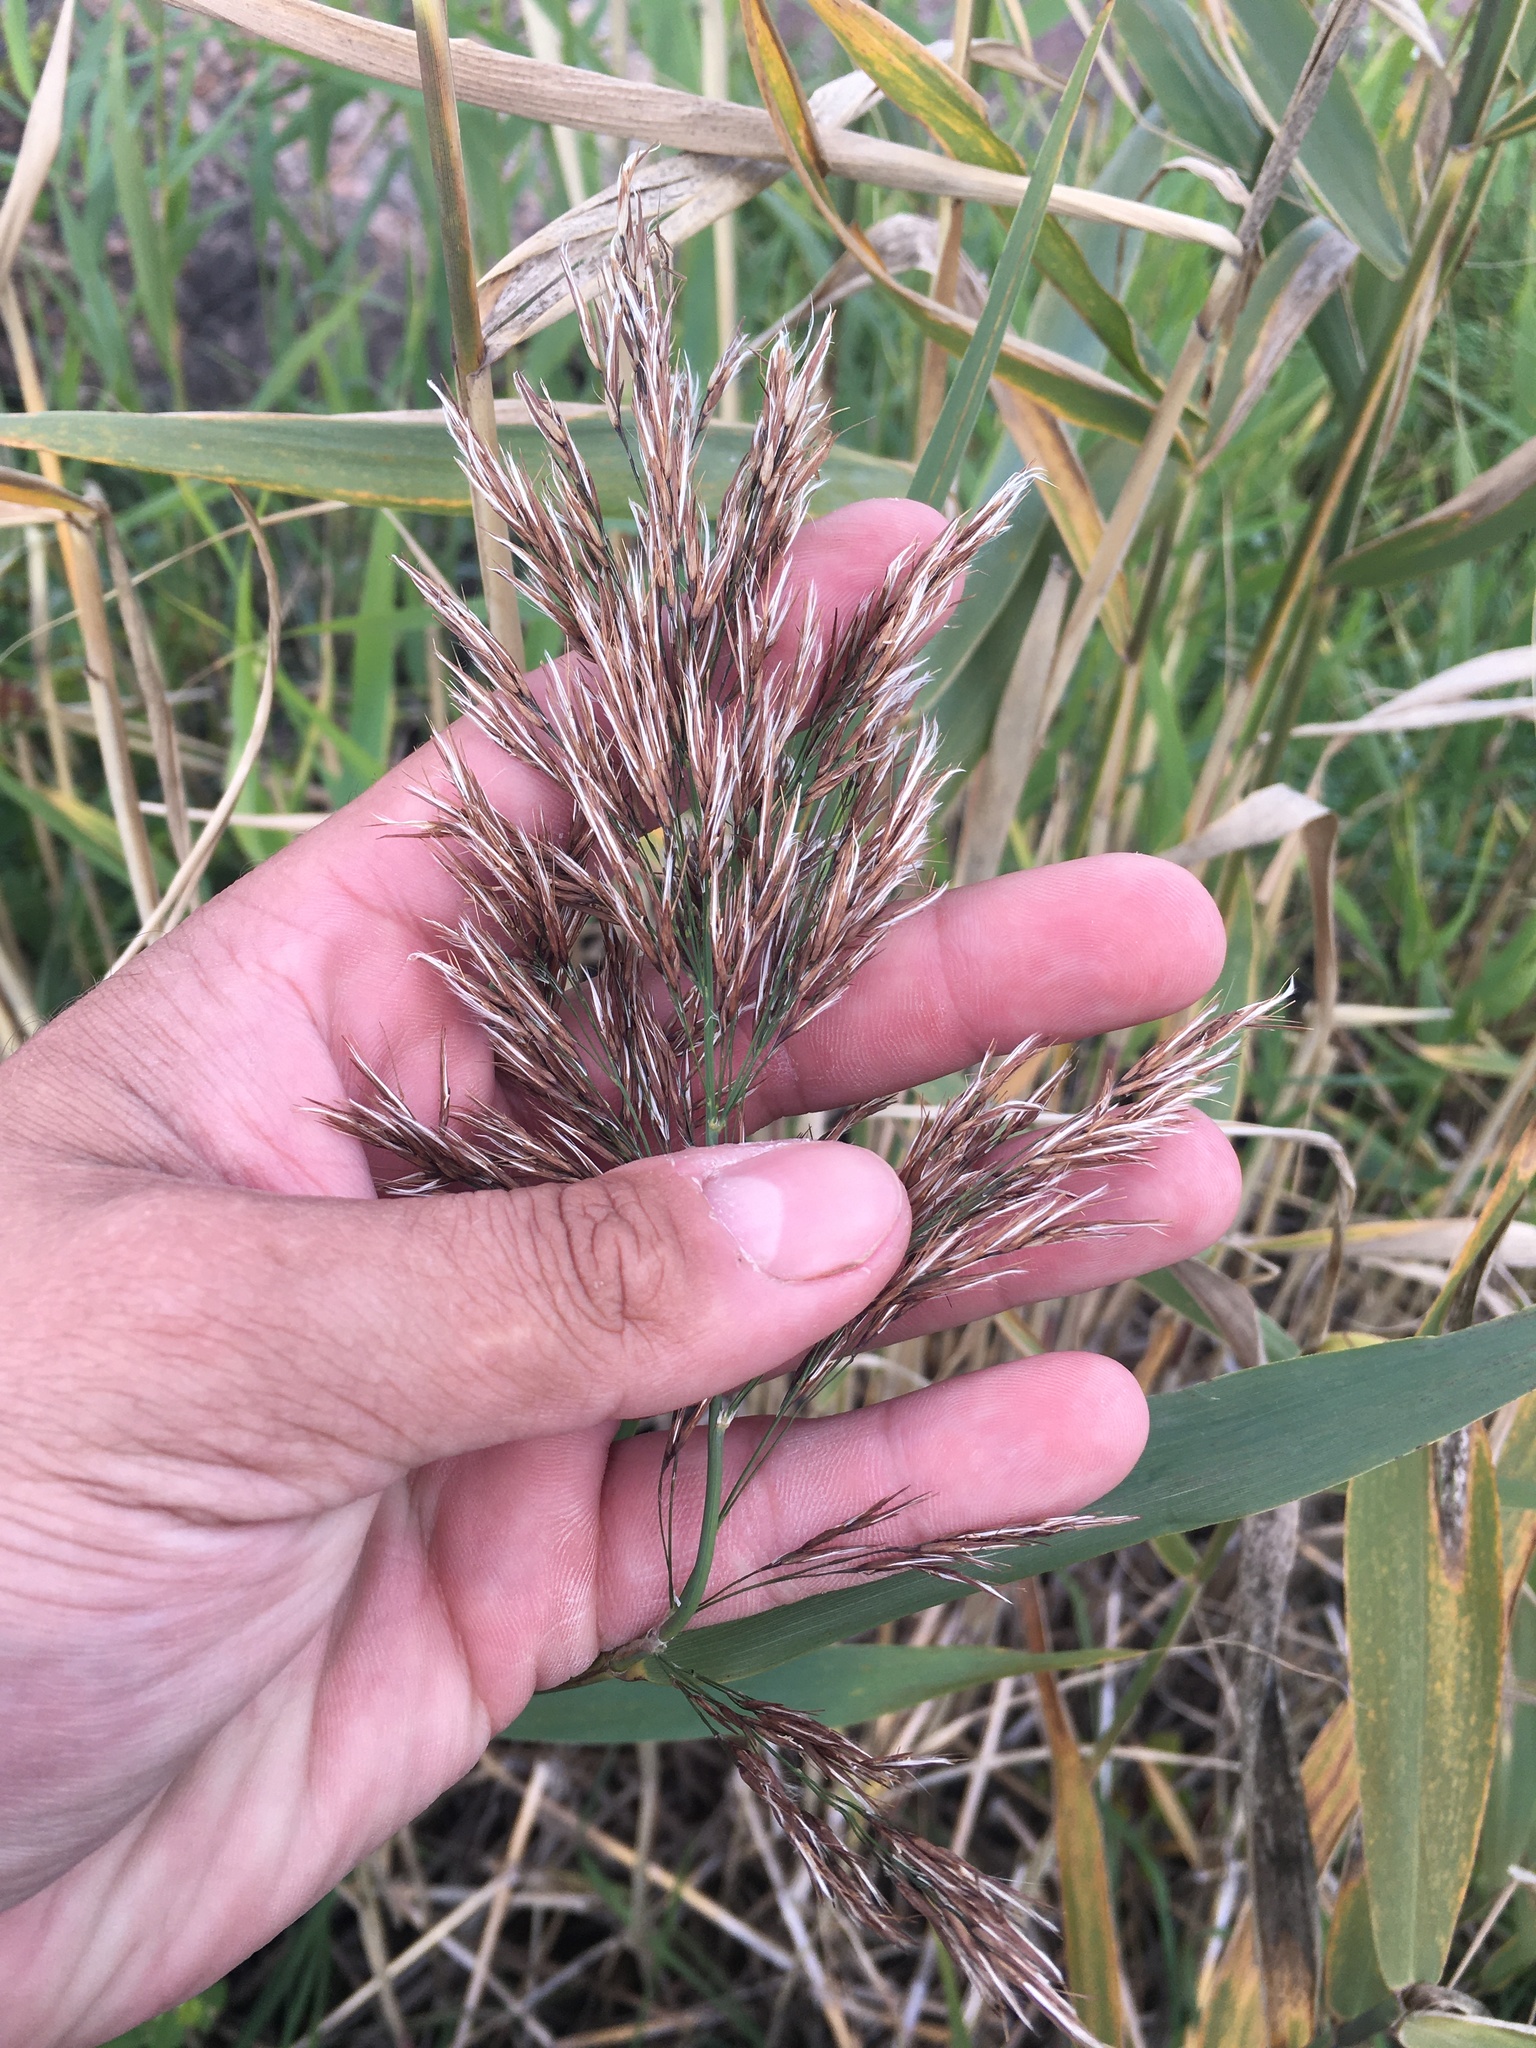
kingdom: Plantae
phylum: Tracheophyta
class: Liliopsida
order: Poales
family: Poaceae
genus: Phragmites
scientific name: Phragmites australis
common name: Common reed
